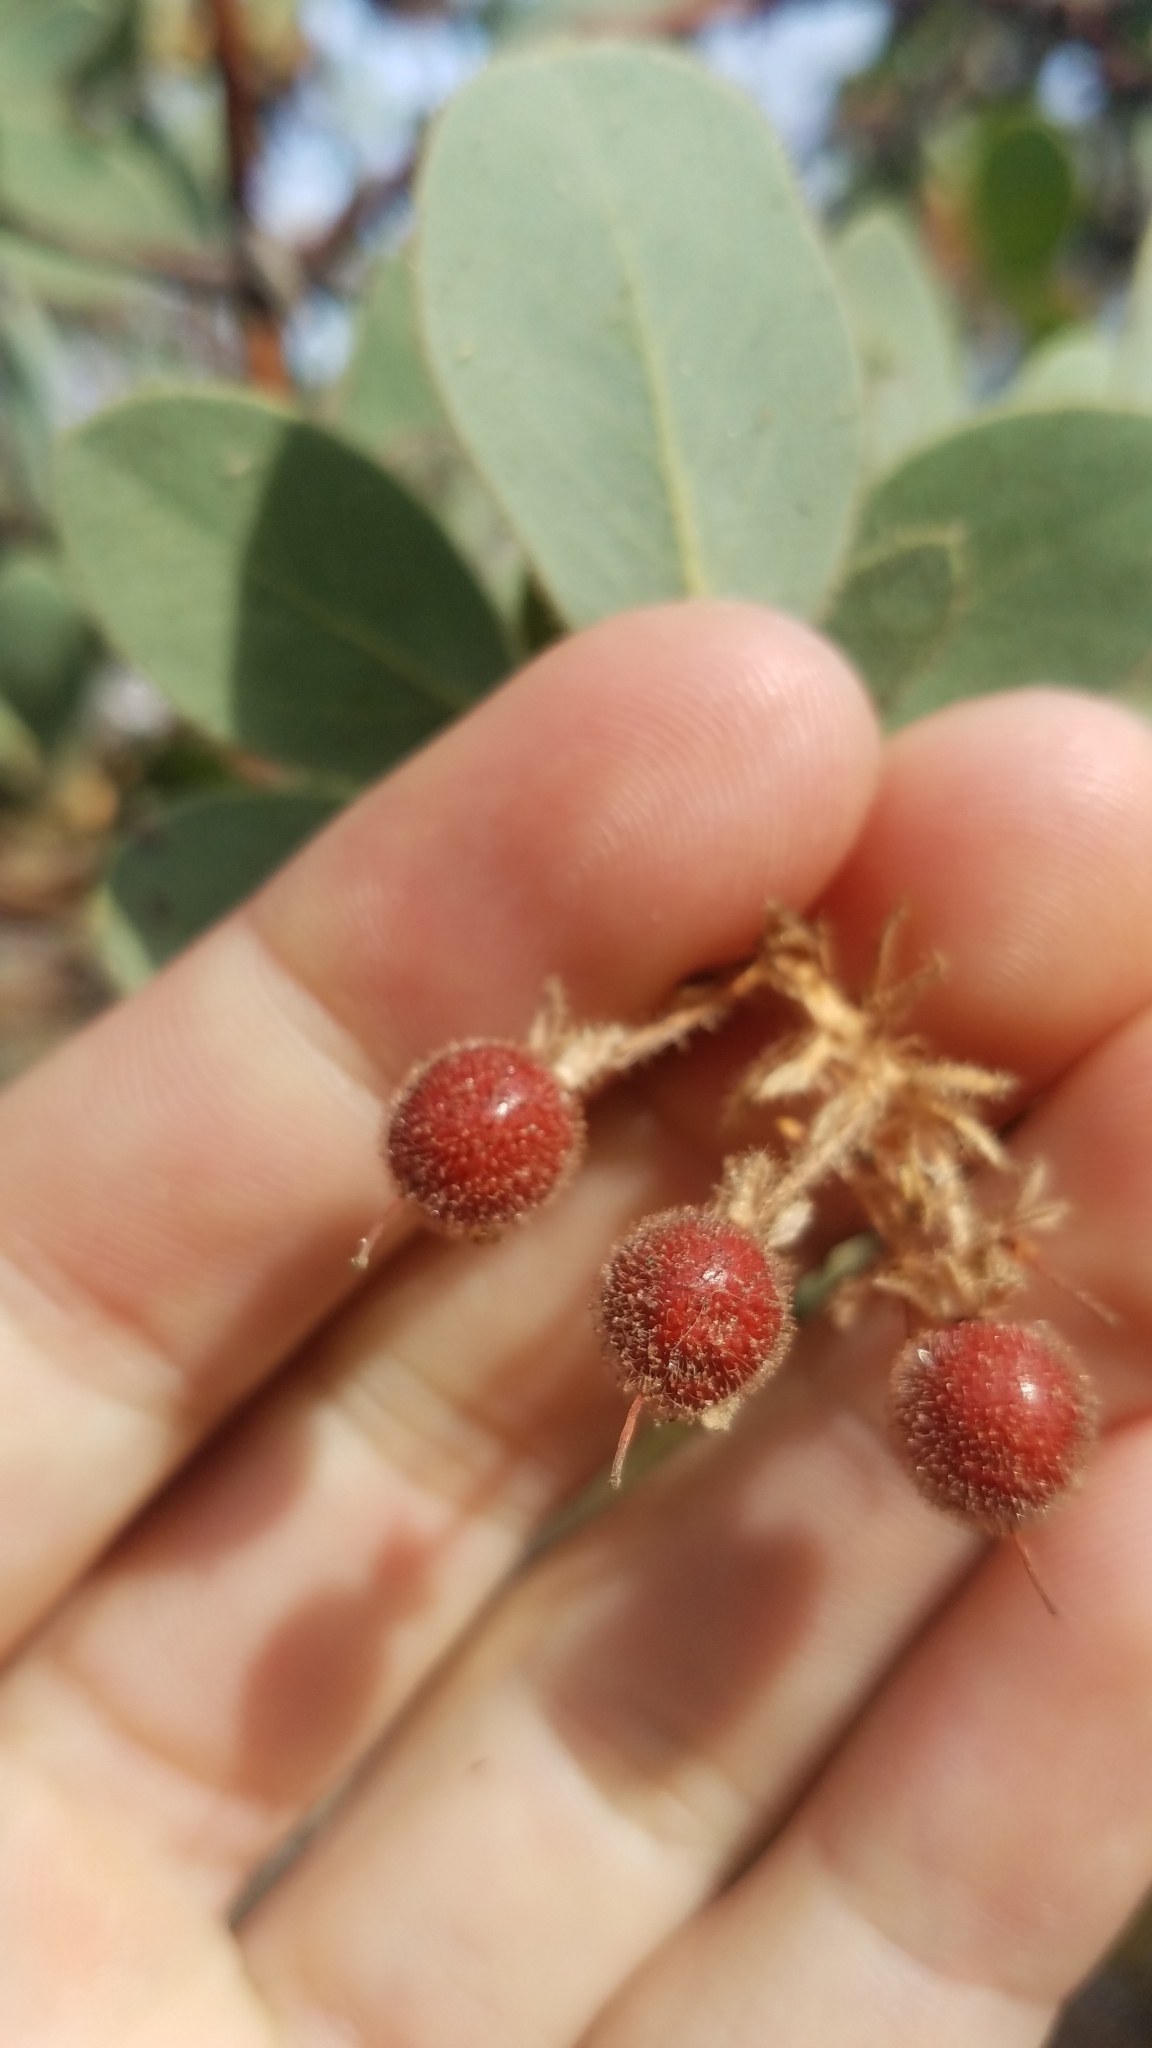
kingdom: Plantae
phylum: Tracheophyta
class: Magnoliopsida
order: Ericales
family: Ericaceae
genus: Arctostaphylos
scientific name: Arctostaphylos pringlei
